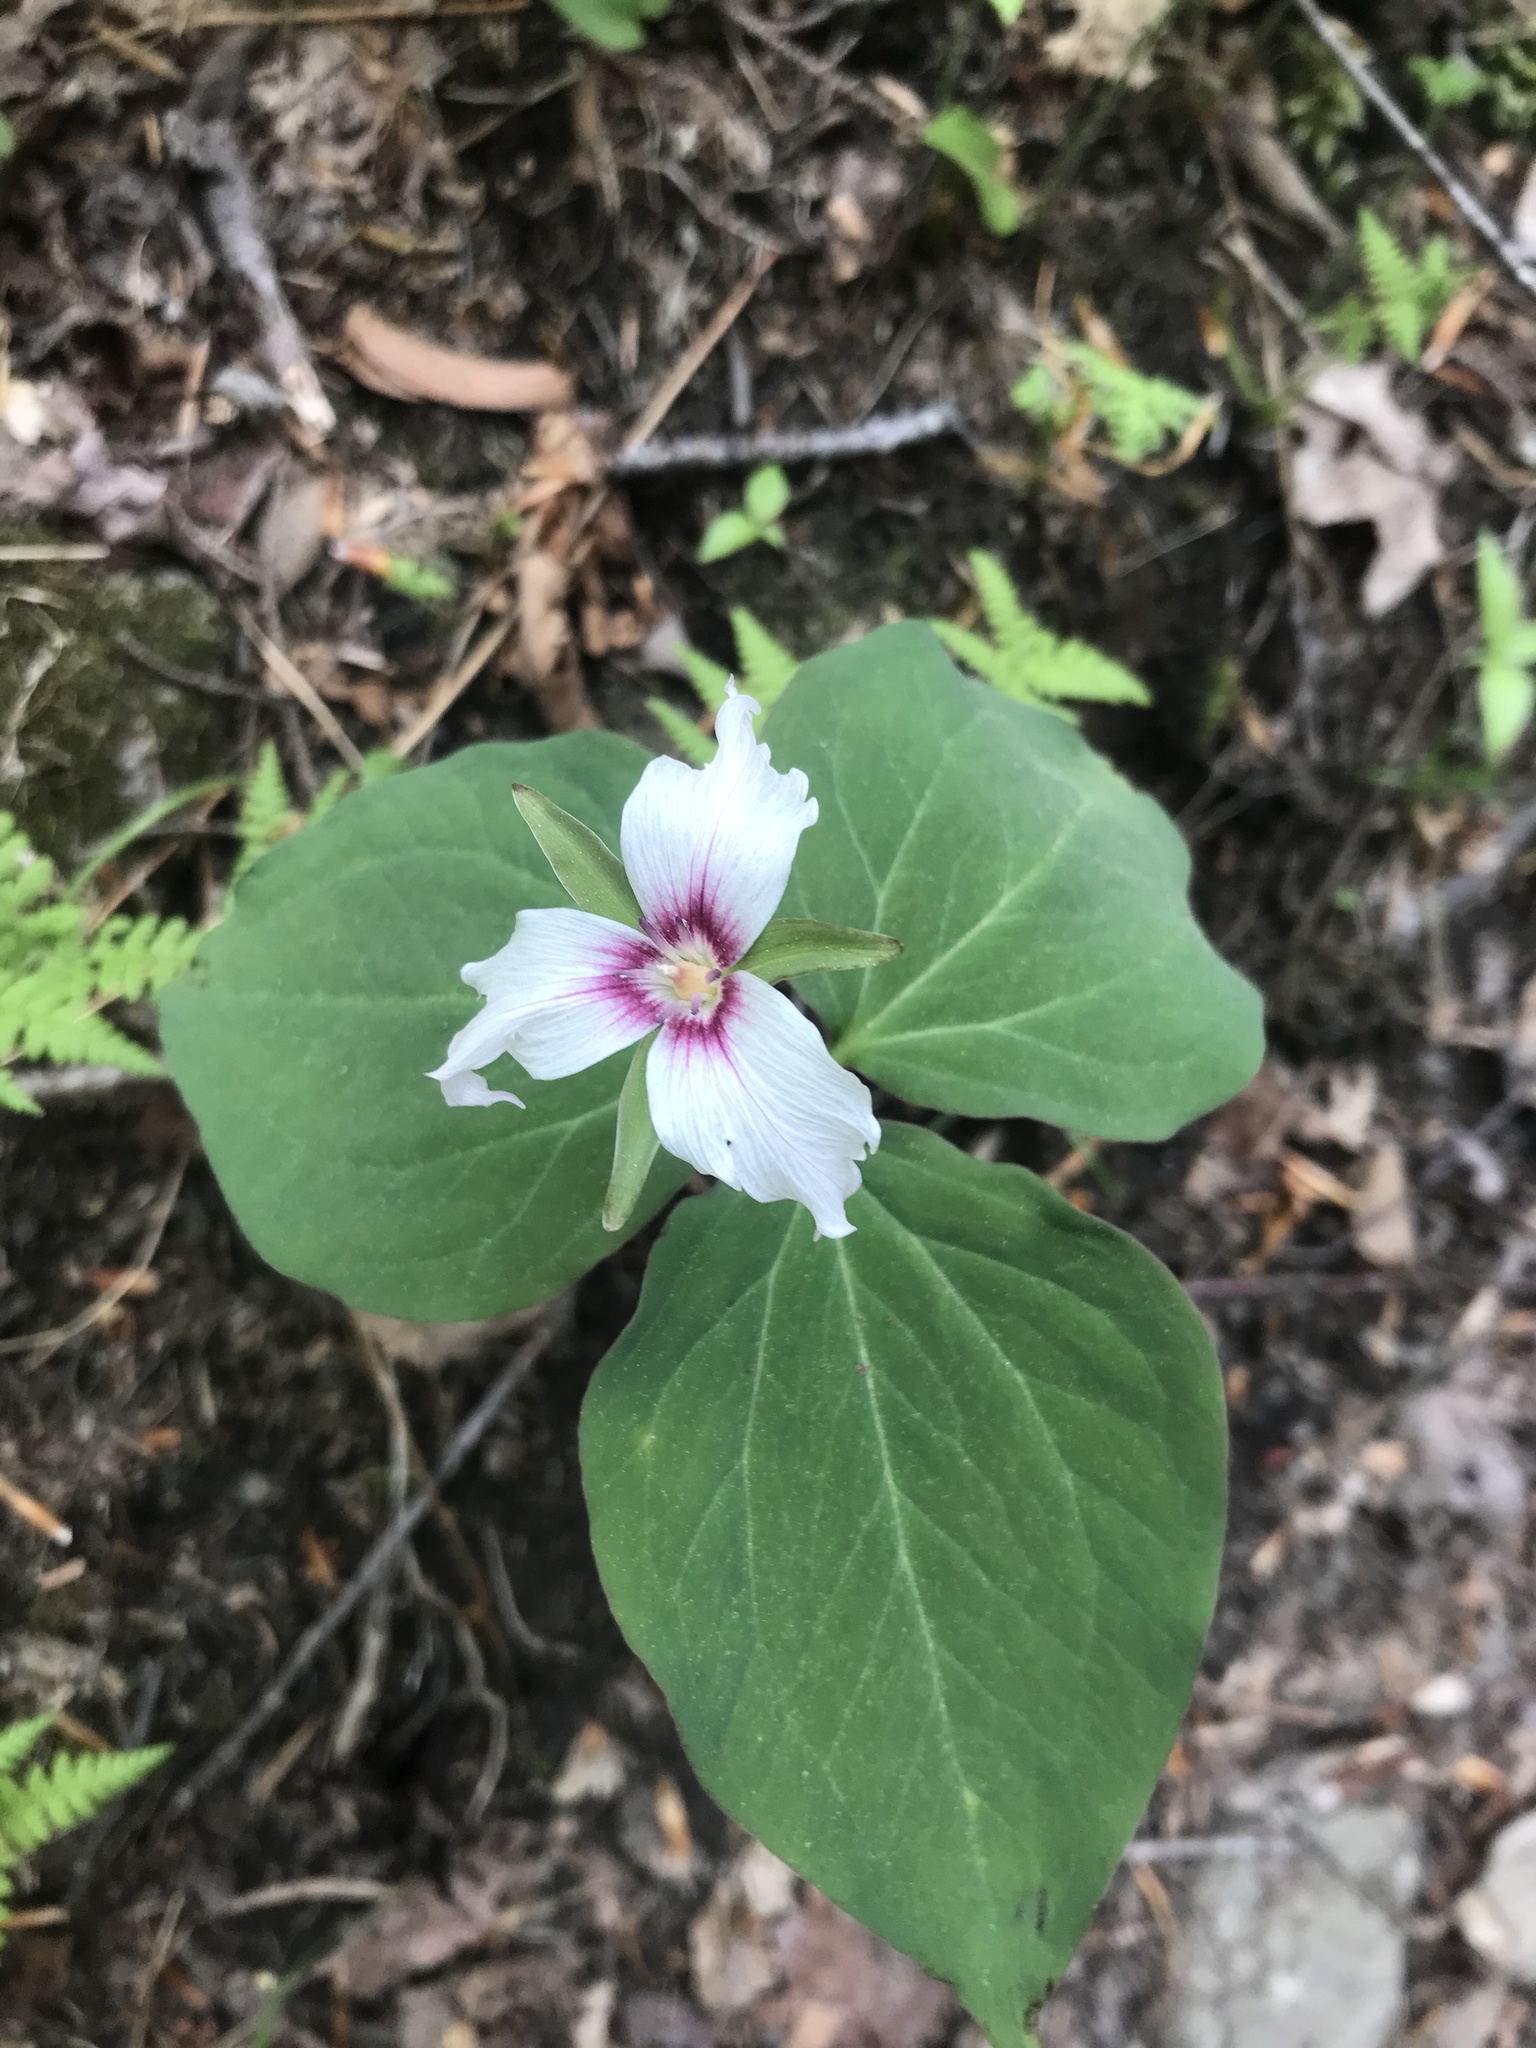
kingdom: Plantae
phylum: Tracheophyta
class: Liliopsida
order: Liliales
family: Melanthiaceae
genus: Trillium
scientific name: Trillium undulatum
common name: Paint trillium
